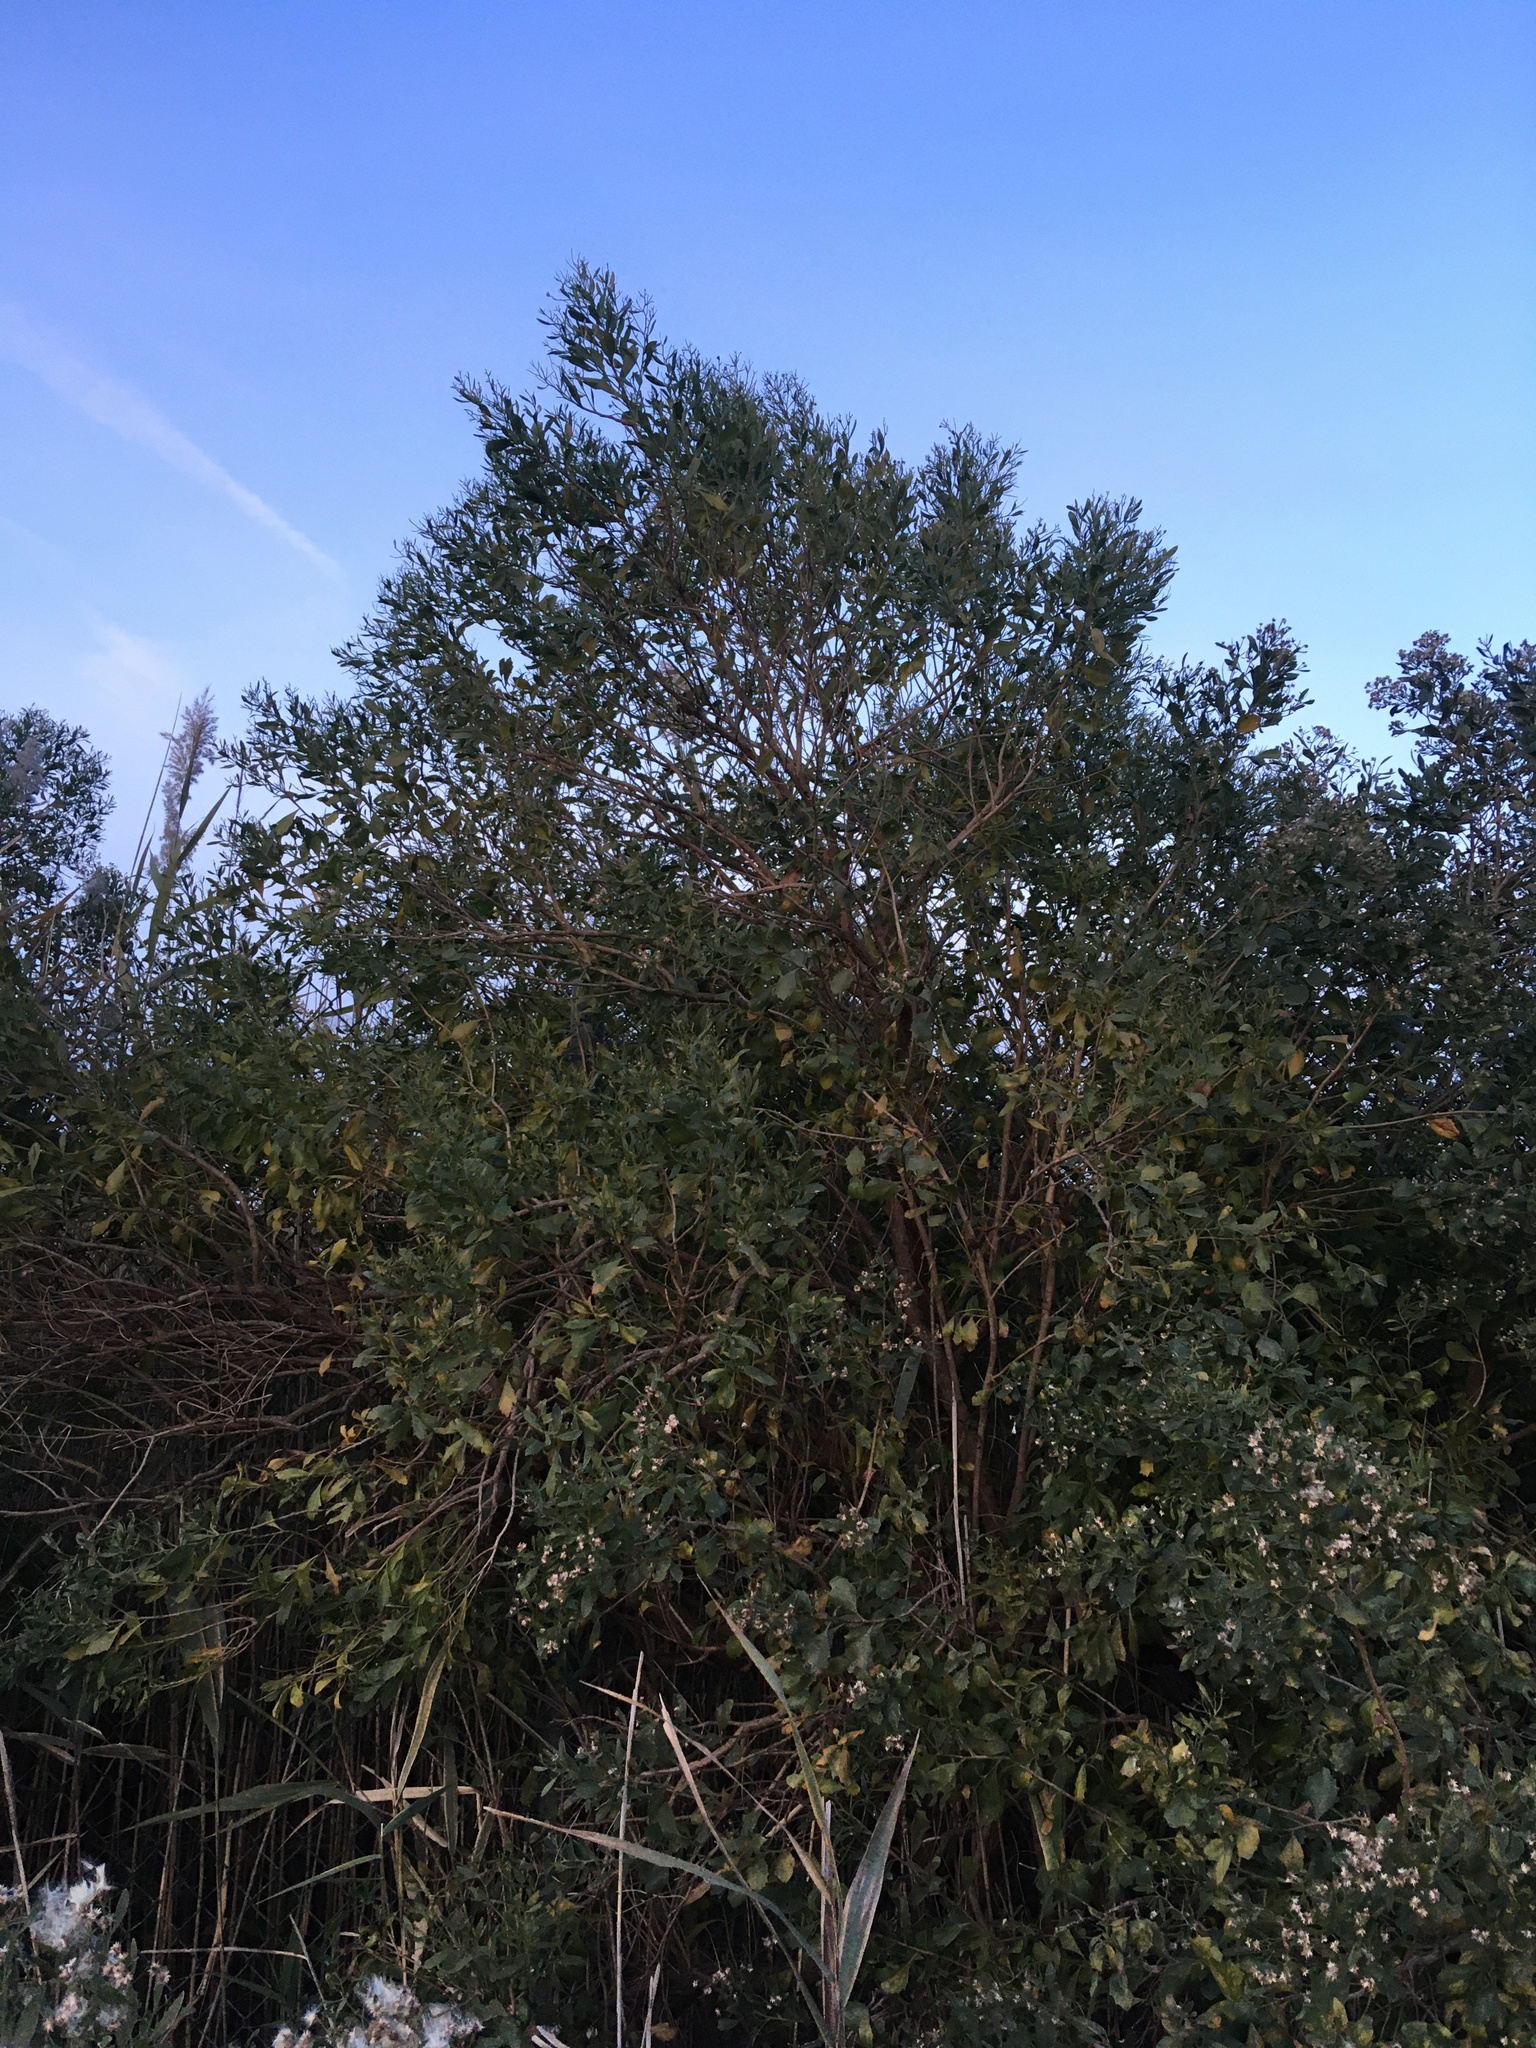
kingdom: Plantae
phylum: Tracheophyta
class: Magnoliopsida
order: Asterales
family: Asteraceae
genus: Baccharis
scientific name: Baccharis halimifolia
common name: Eastern baccharis
